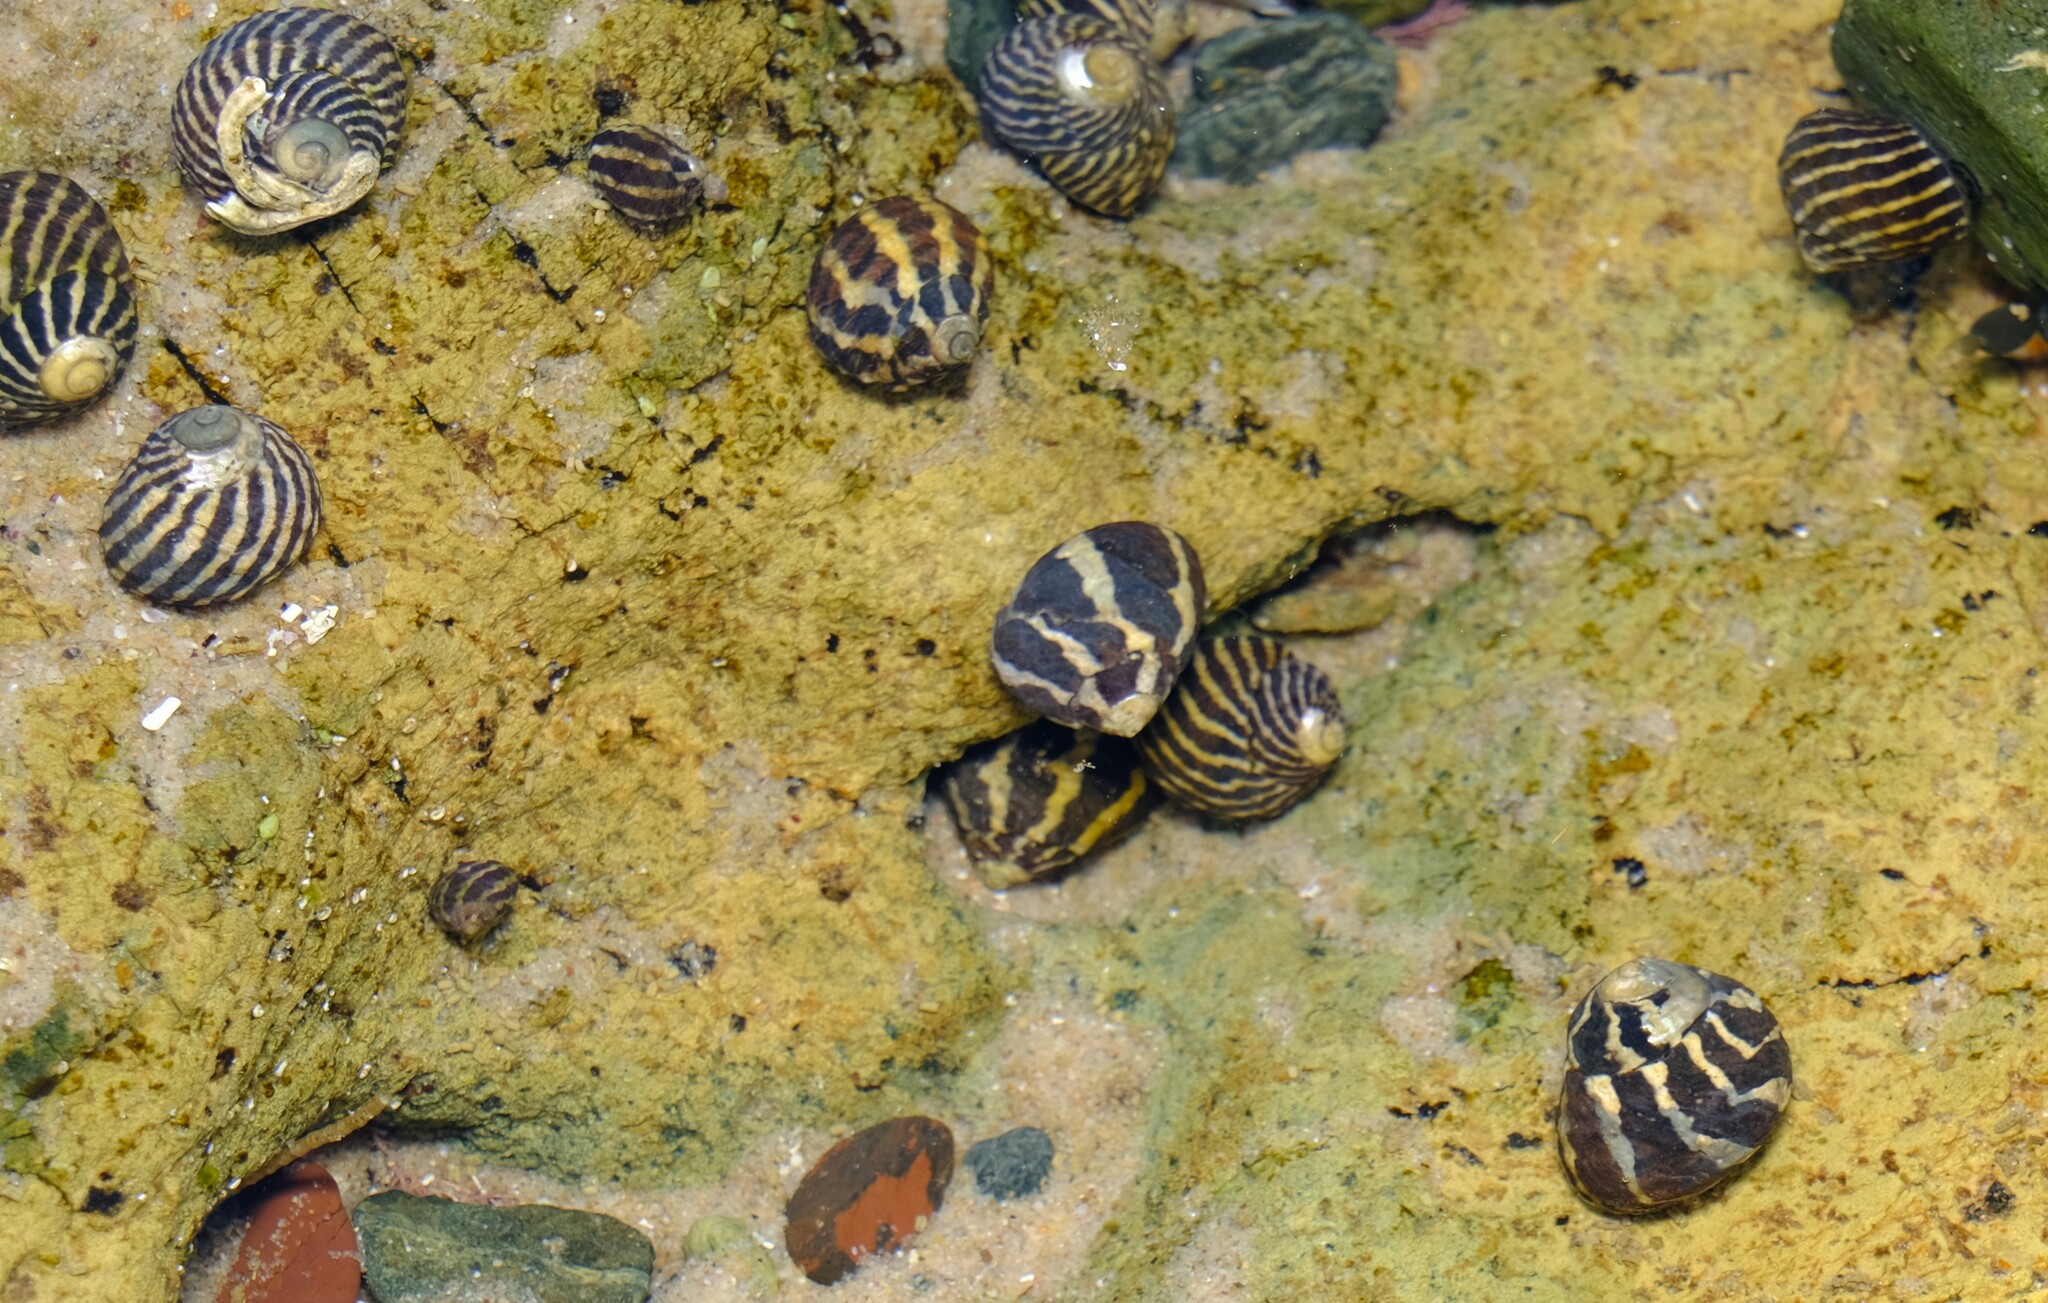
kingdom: Animalia
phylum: Mollusca
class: Gastropoda
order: Trochida
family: Trochidae
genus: Austrocochlea
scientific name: Austrocochlea porcata
